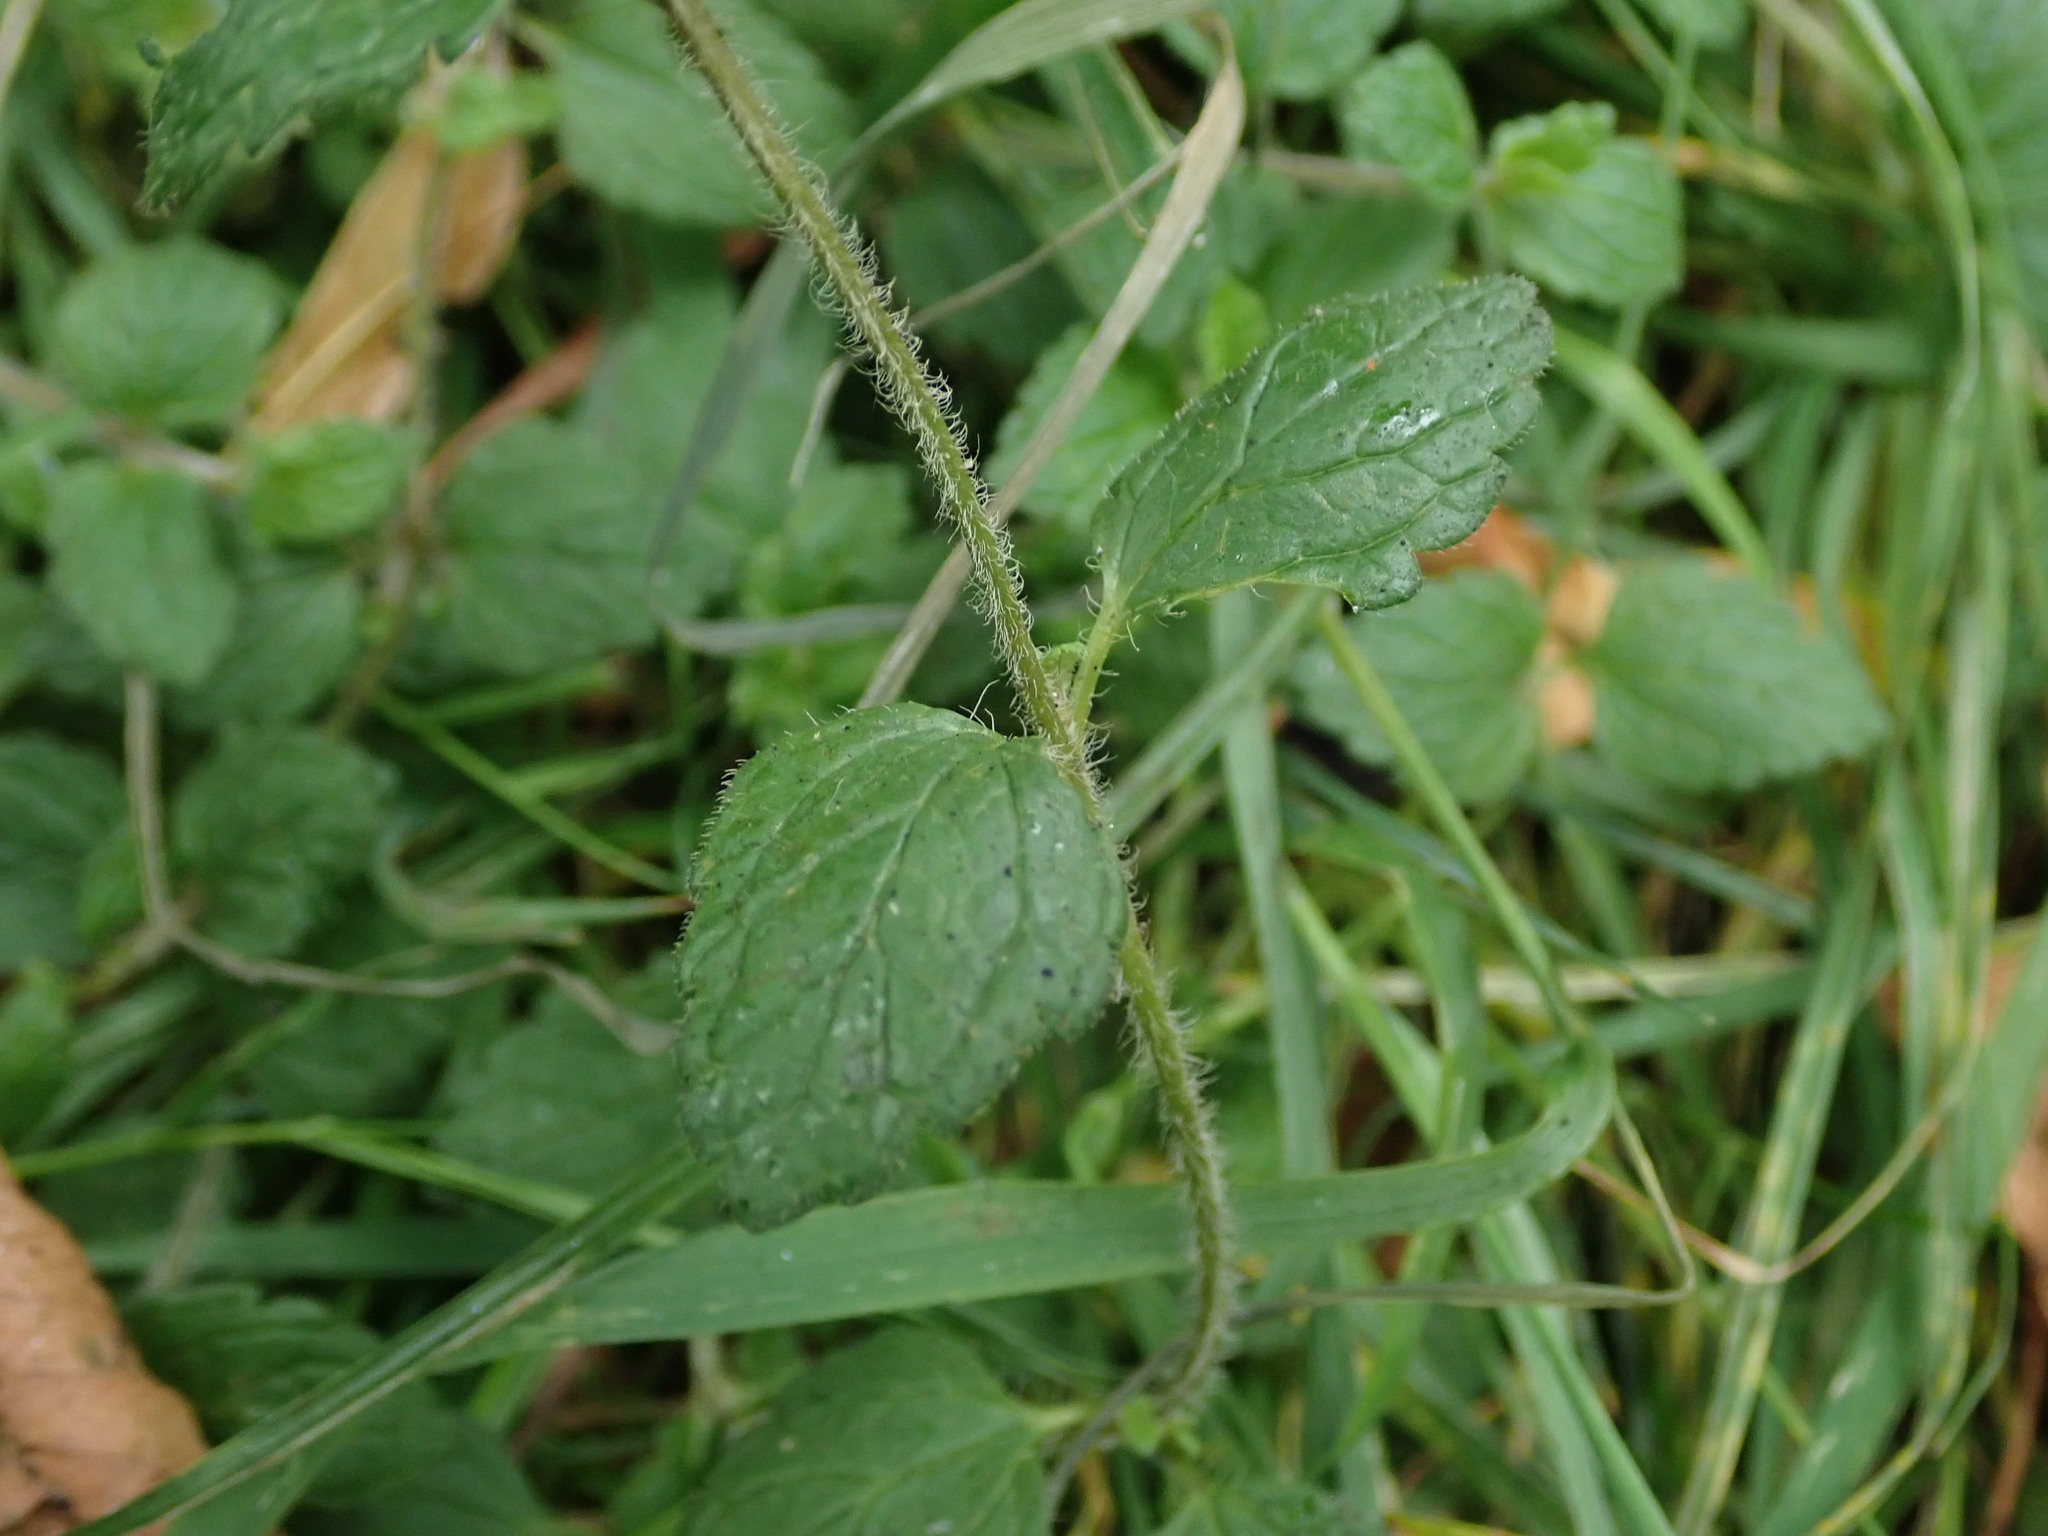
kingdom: Plantae
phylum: Tracheophyta
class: Magnoliopsida
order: Lamiales
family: Plantaginaceae
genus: Veronica
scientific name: Veronica chamaedrys
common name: Germander speedwell
